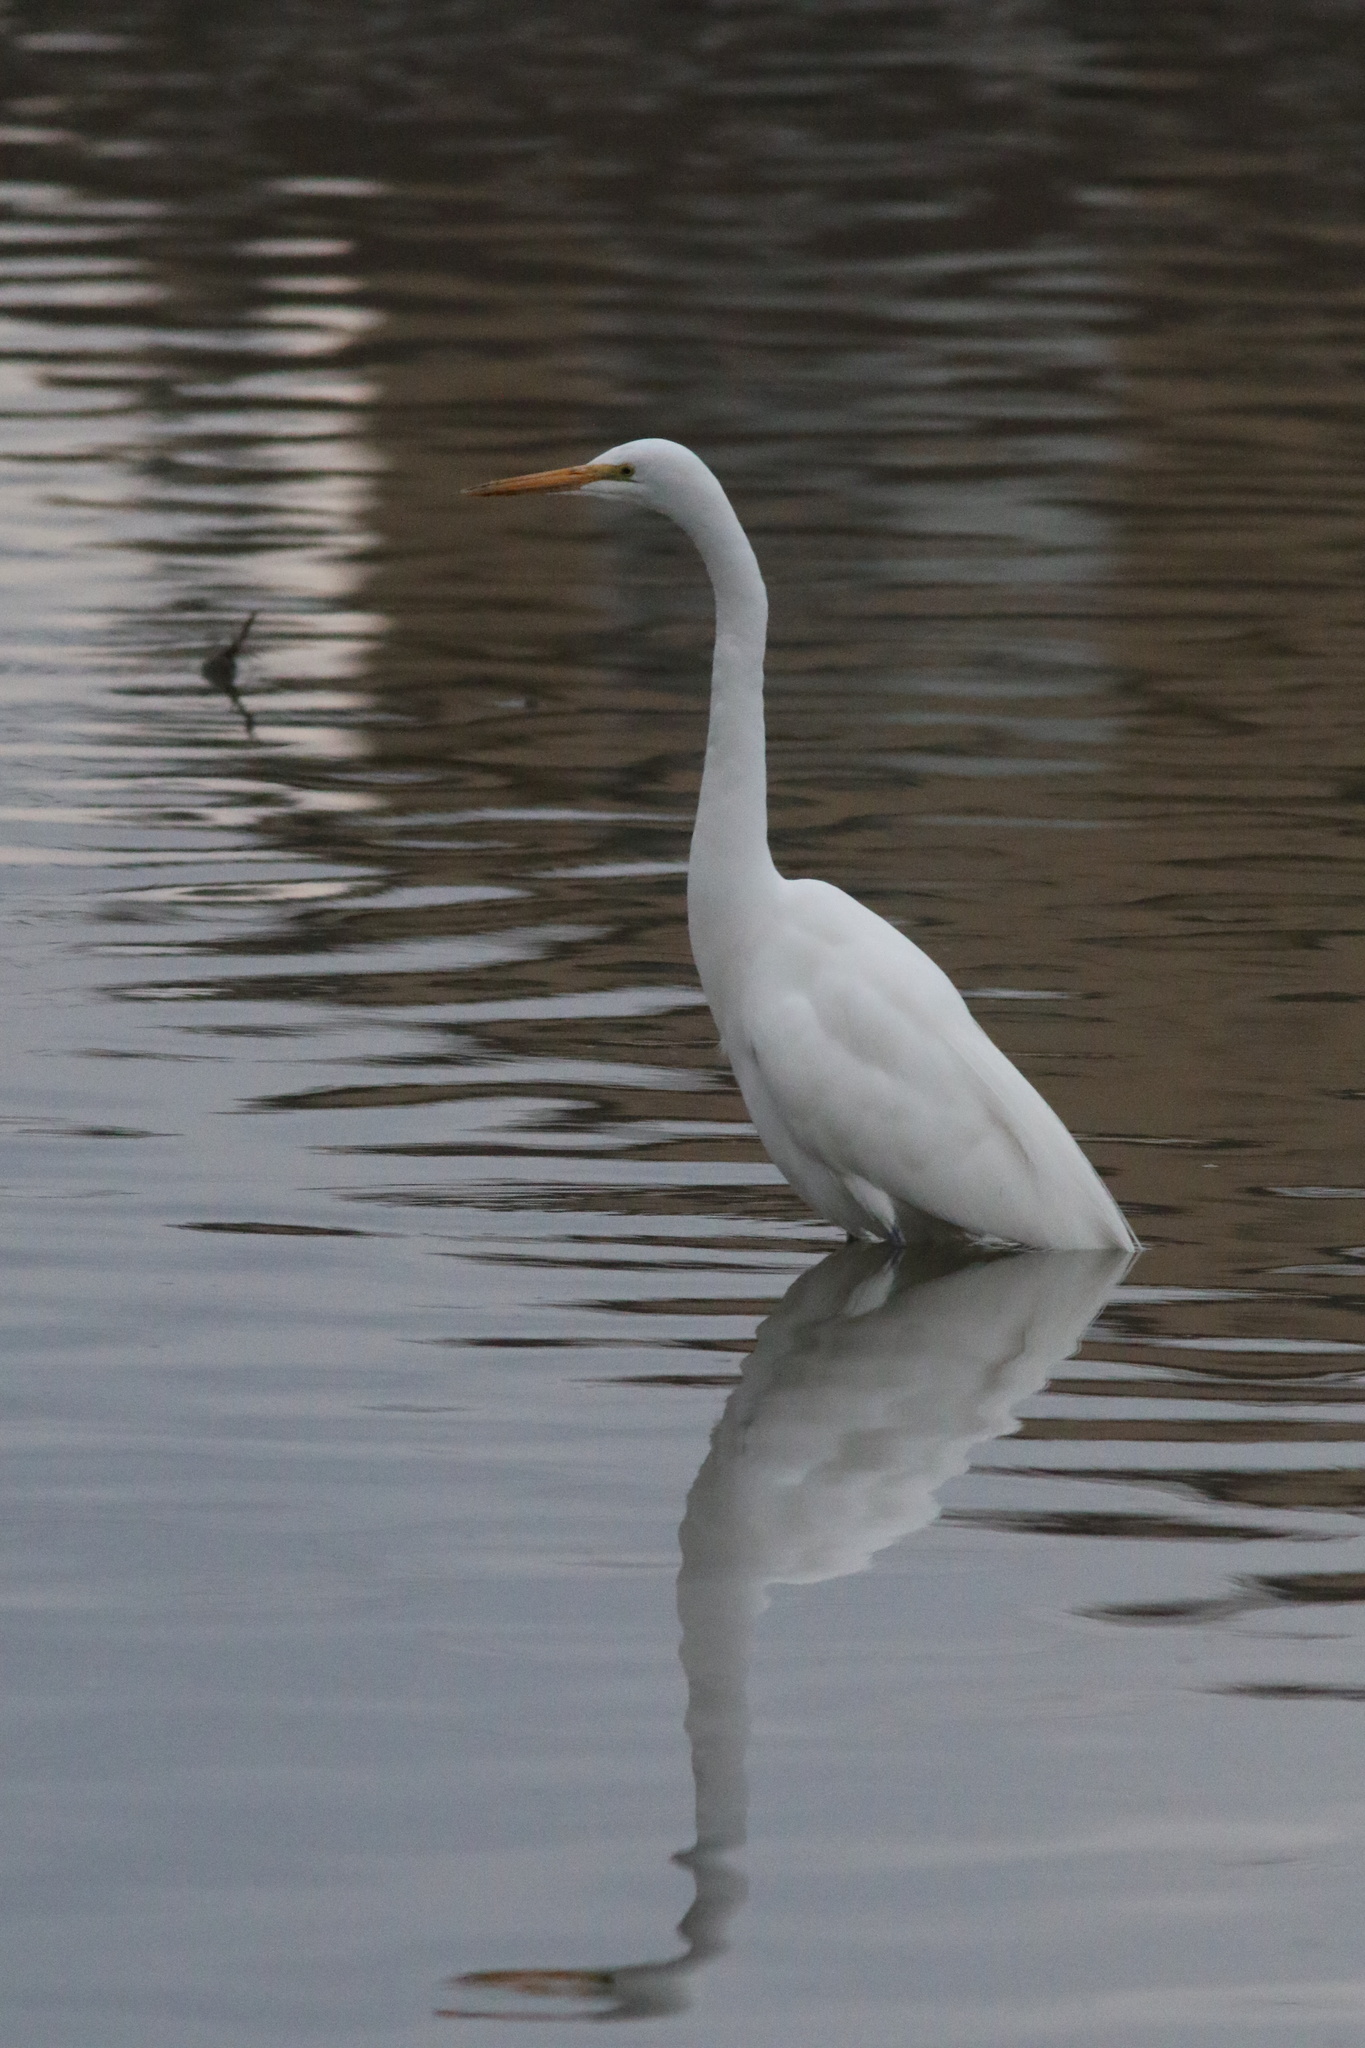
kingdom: Animalia
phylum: Chordata
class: Aves
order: Pelecaniformes
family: Ardeidae
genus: Ardea
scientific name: Ardea alba
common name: Great egret
